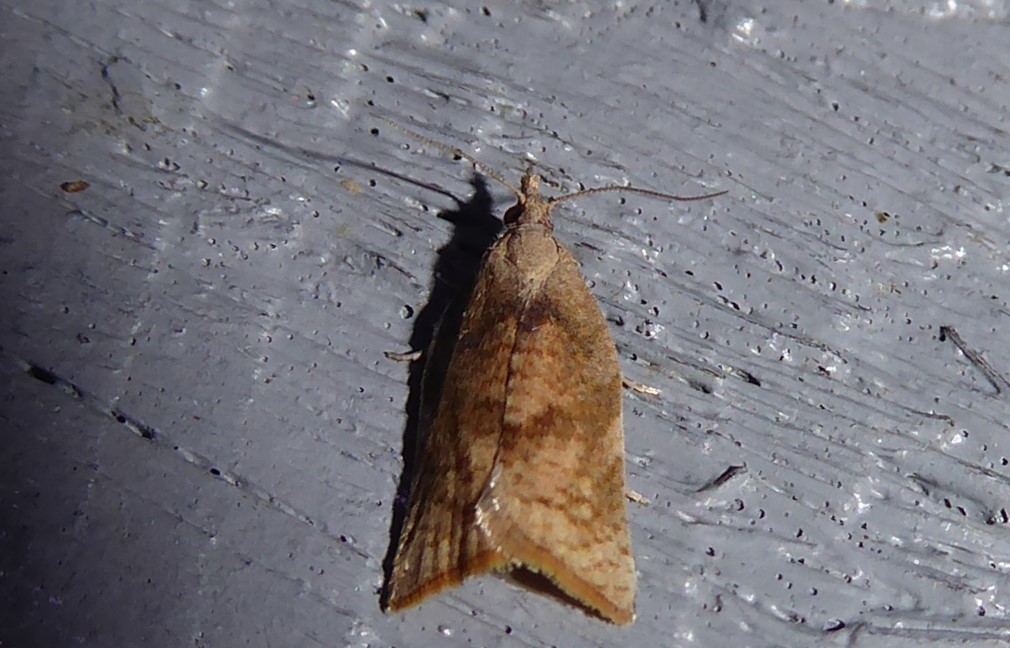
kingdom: Animalia
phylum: Arthropoda
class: Insecta
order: Lepidoptera
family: Tortricidae
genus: Catamacta
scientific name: Catamacta gavisana
